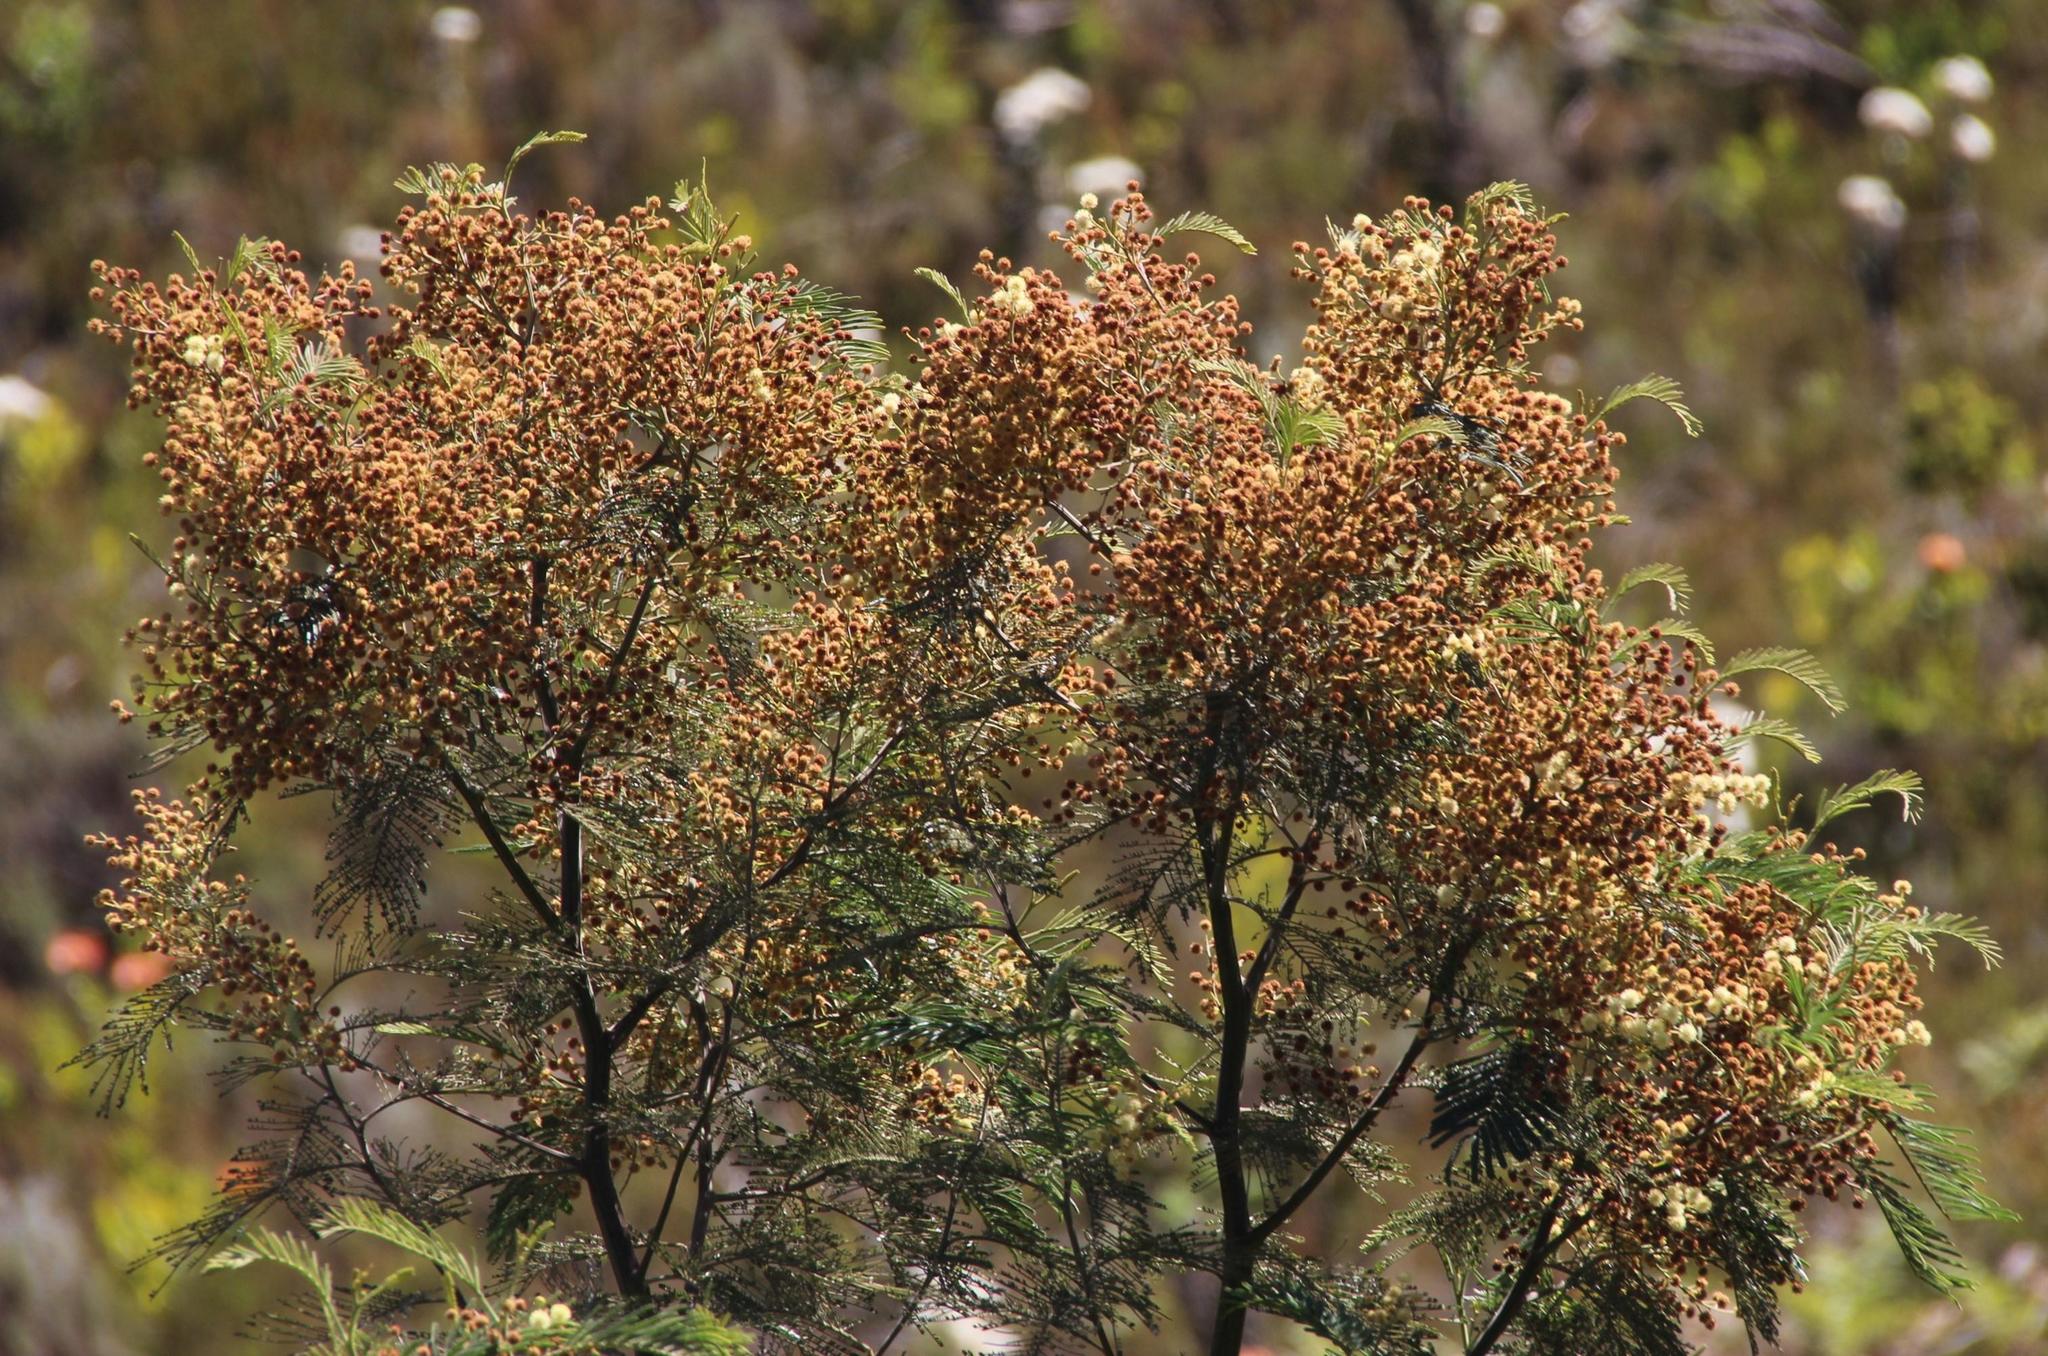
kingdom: Plantae
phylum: Tracheophyta
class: Magnoliopsida
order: Fabales
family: Fabaceae
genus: Acacia
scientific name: Acacia mearnsii
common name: Black wattle
